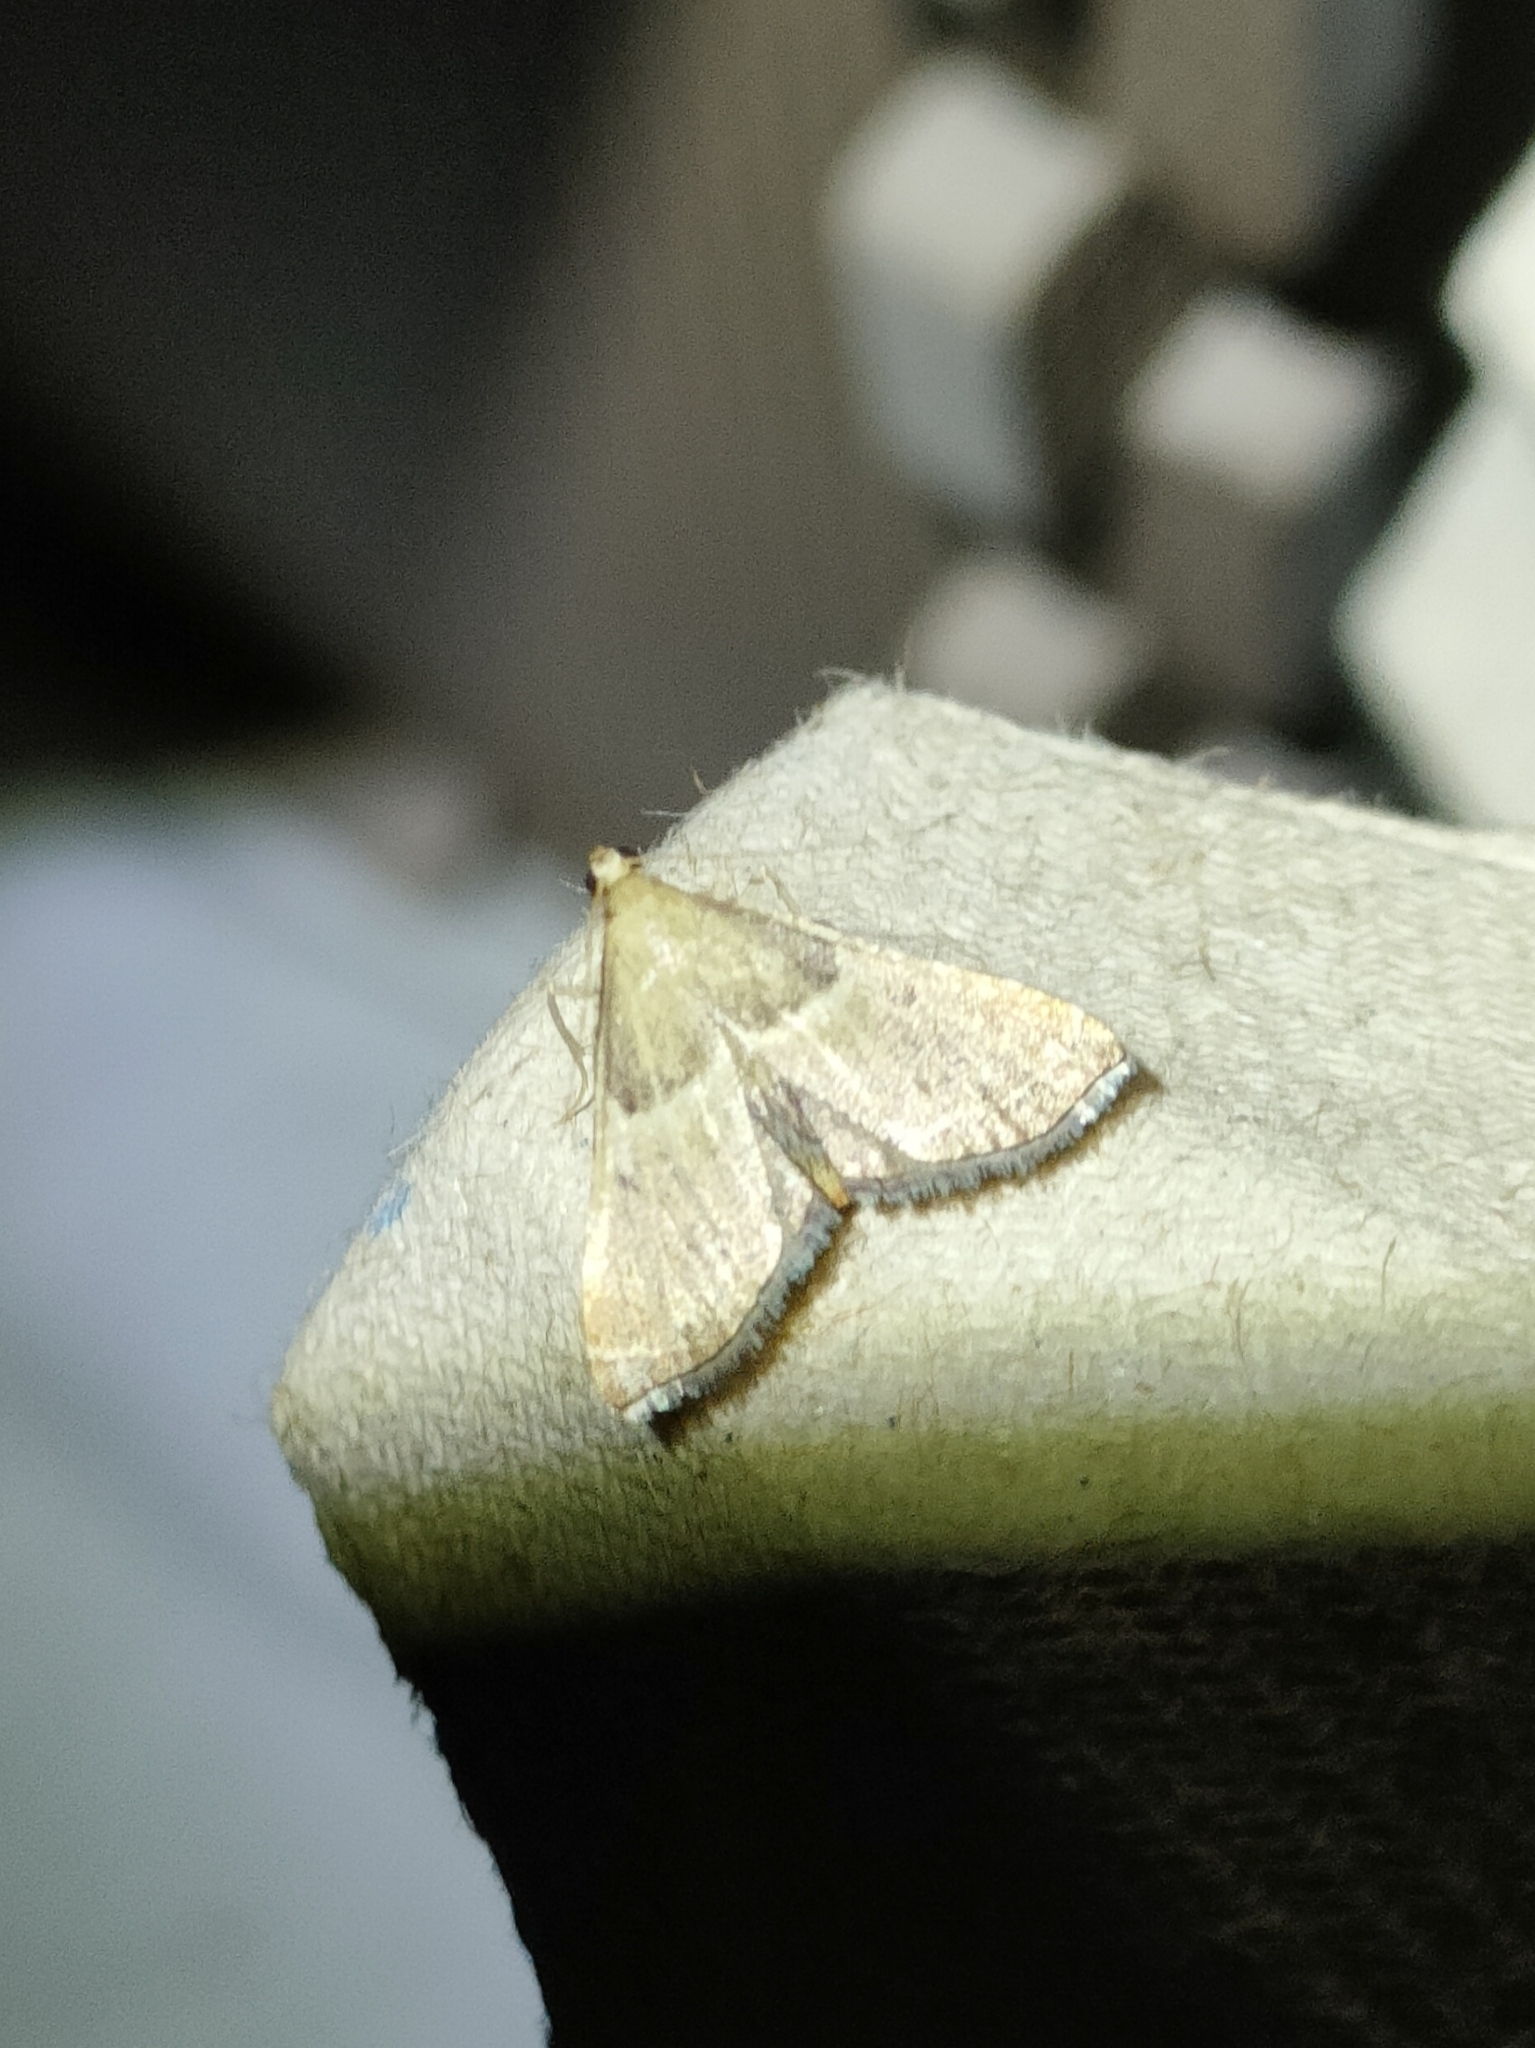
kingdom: Animalia
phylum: Arthropoda
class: Insecta
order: Lepidoptera
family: Pyralidae
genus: Endotricha
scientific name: Endotricha flammealis
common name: Rosy tabby
